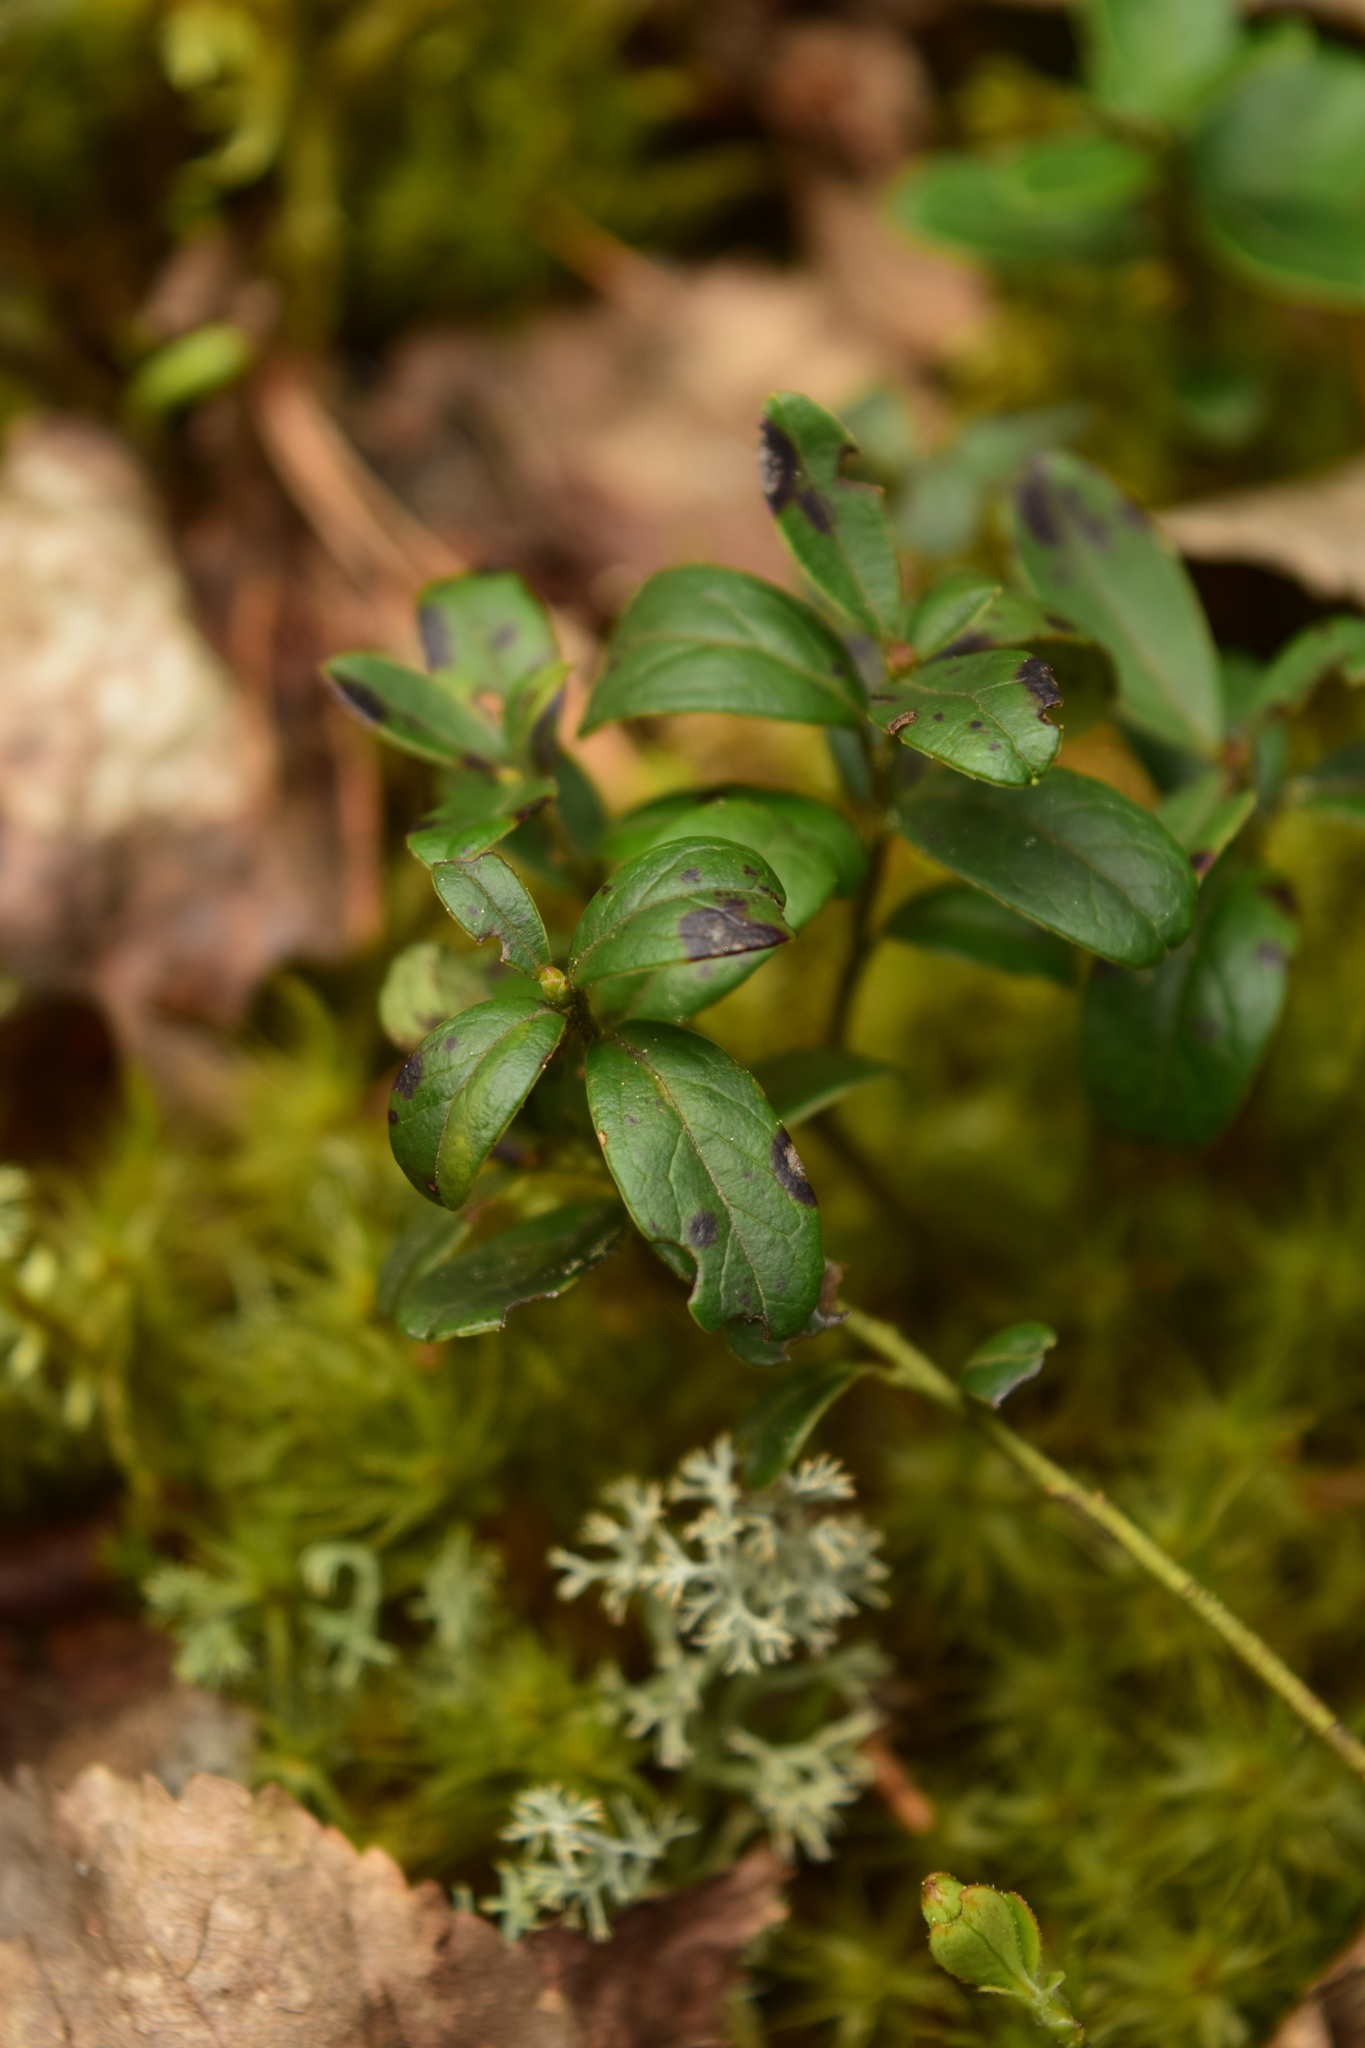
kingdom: Plantae
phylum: Tracheophyta
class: Magnoliopsida
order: Ericales
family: Ericaceae
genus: Vaccinium
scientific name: Vaccinium vitis-idaea
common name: Cowberry
